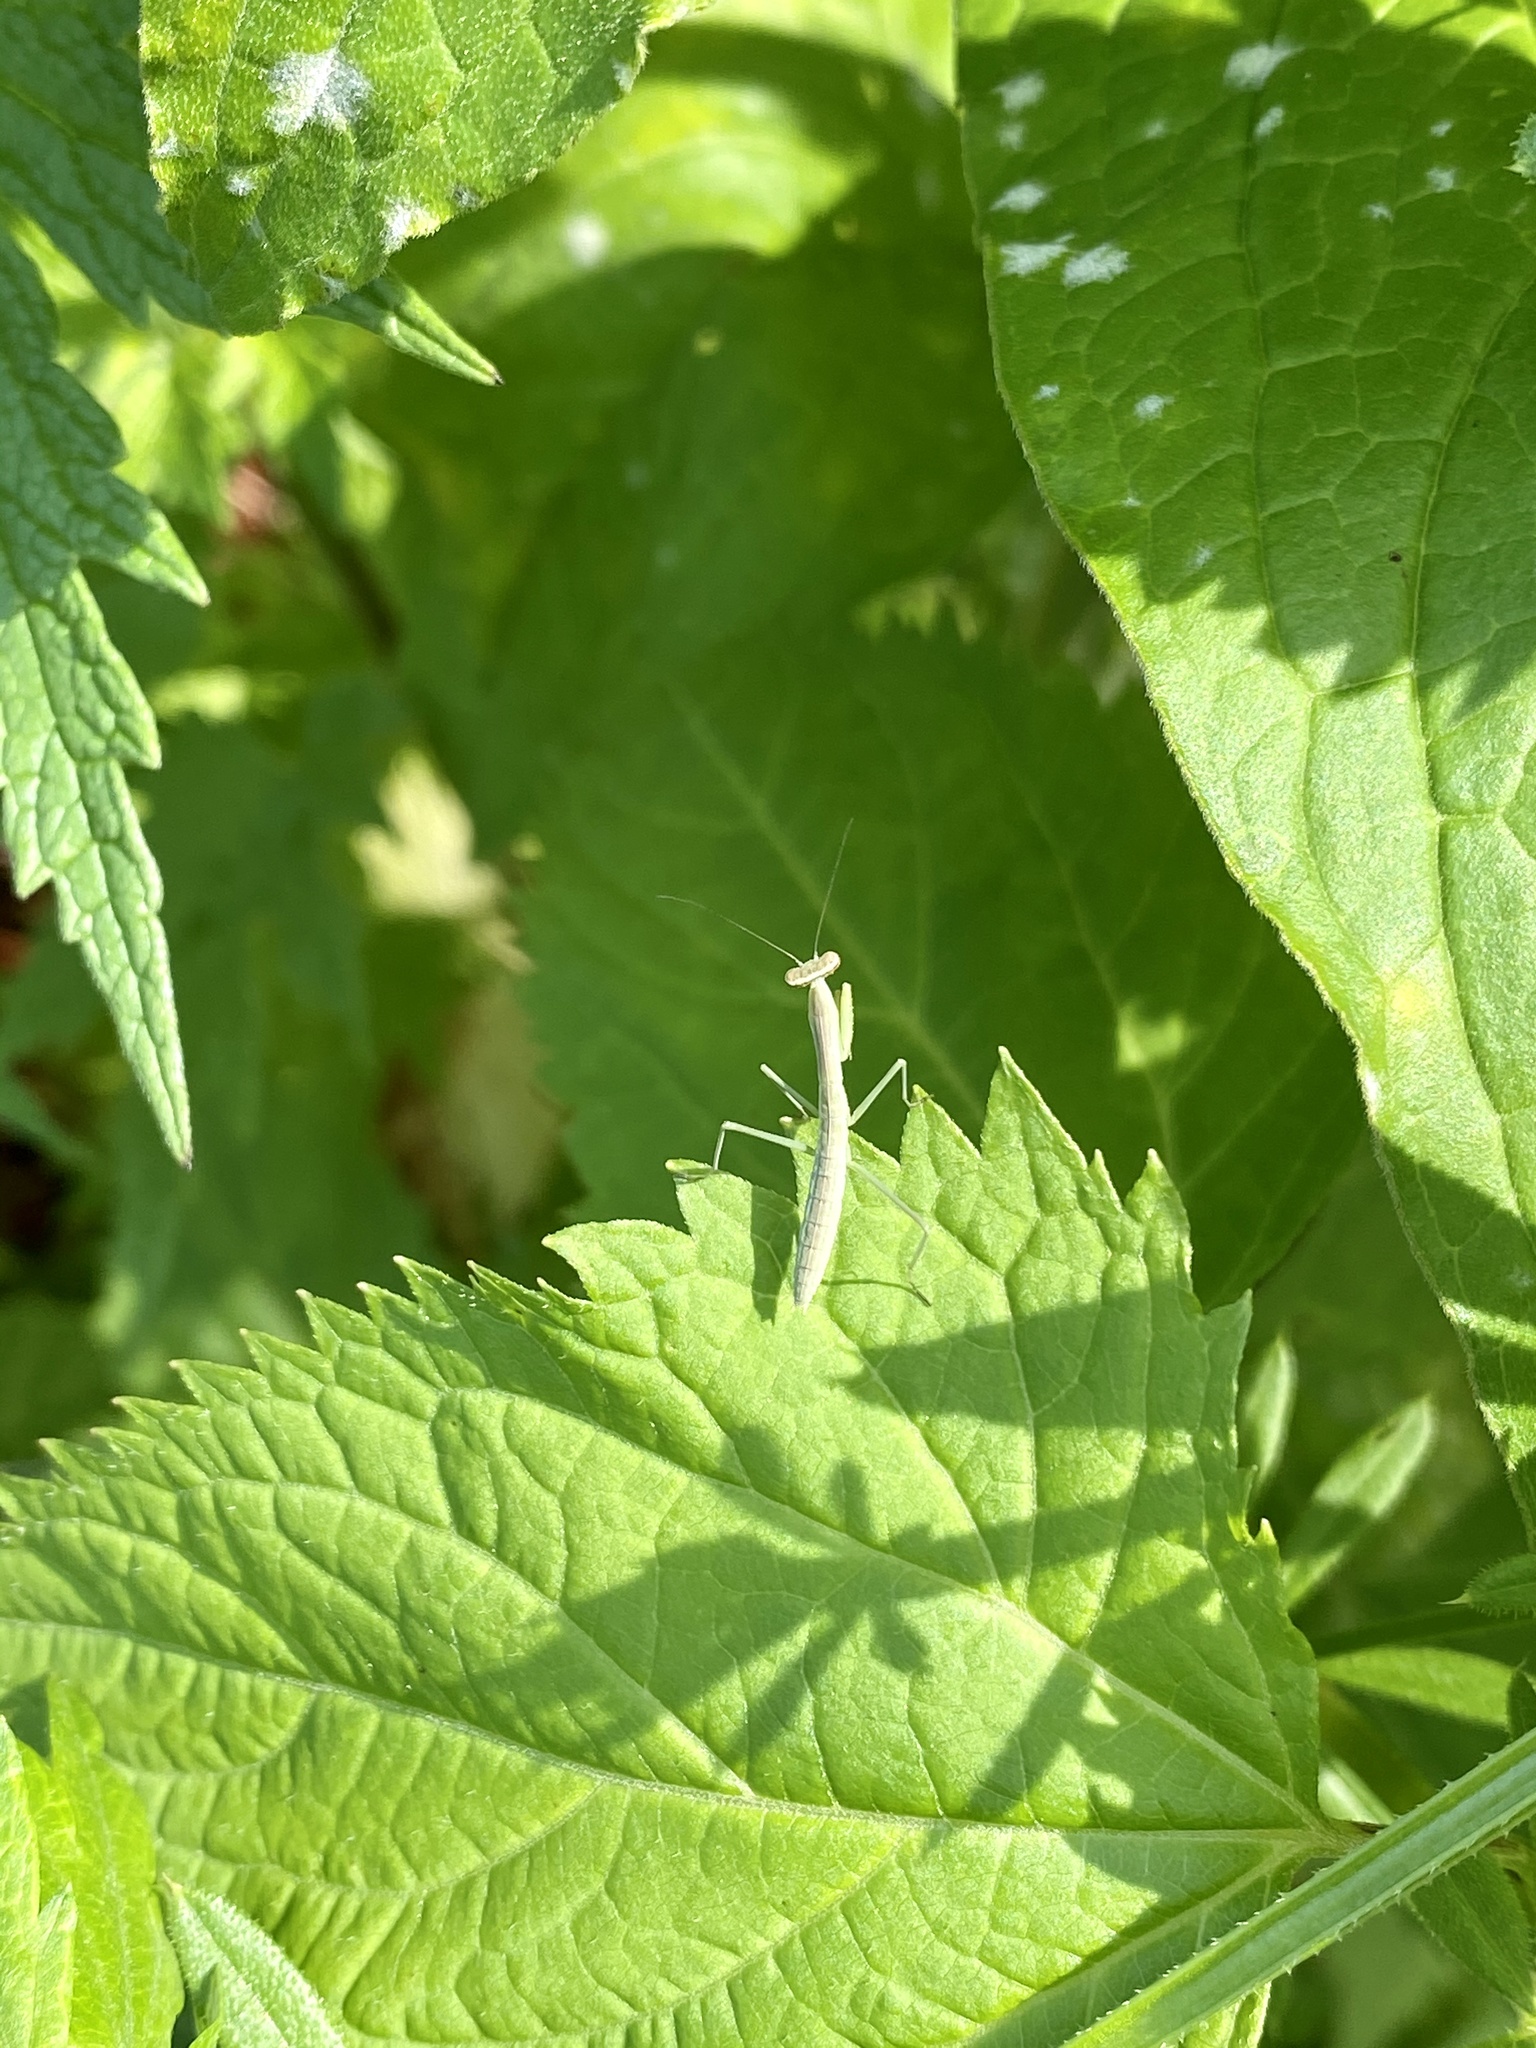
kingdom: Animalia
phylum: Arthropoda
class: Insecta
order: Mantodea
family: Mantidae
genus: Tenodera
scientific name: Tenodera angustipennis
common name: Asian mantis
